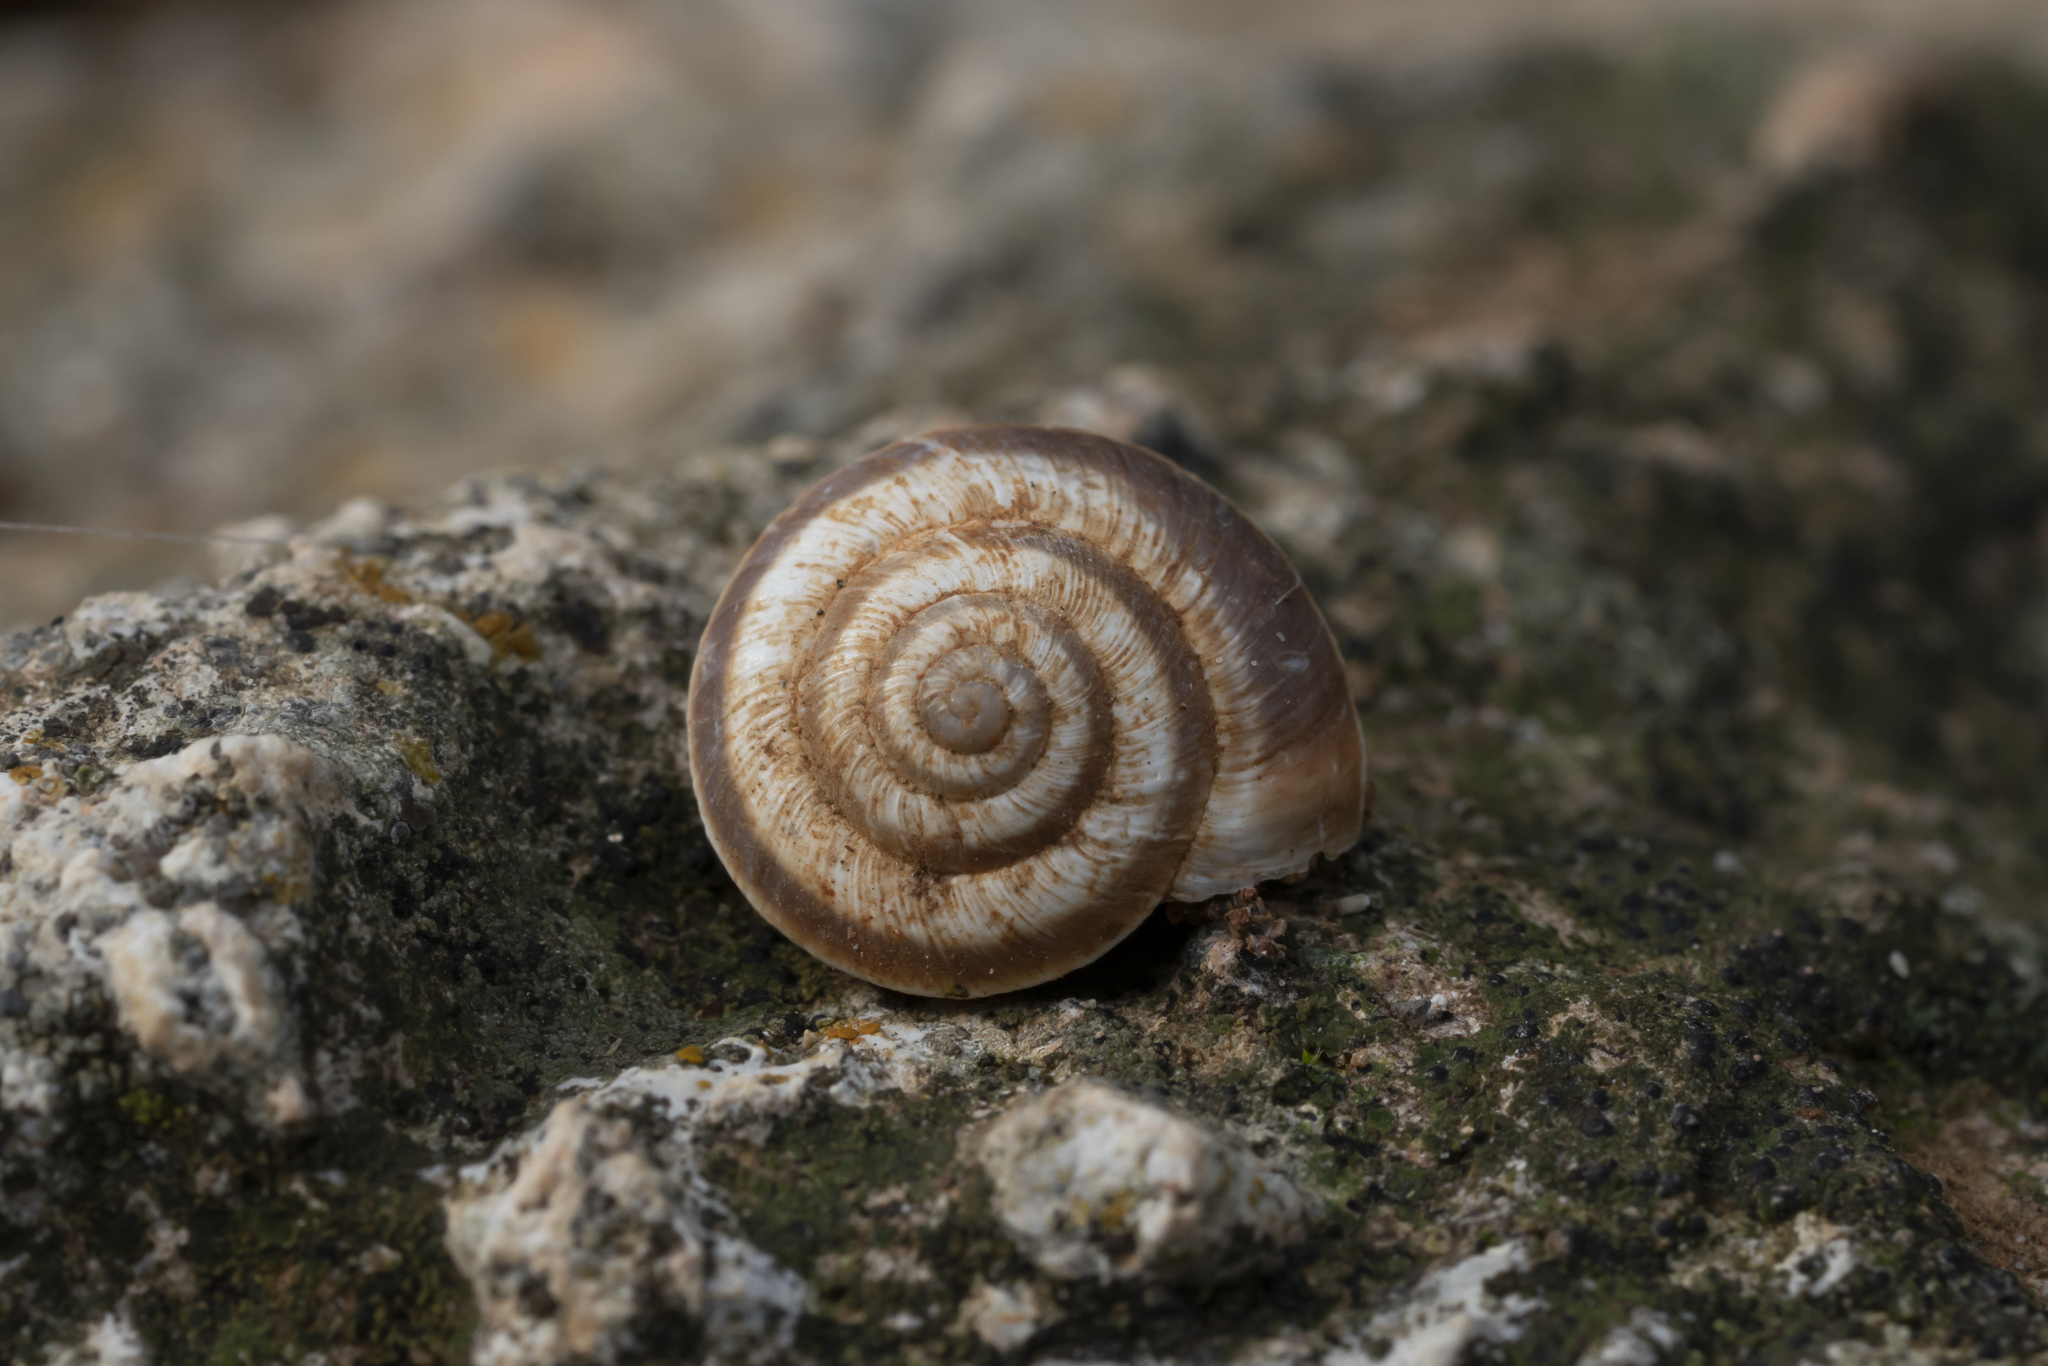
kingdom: Animalia
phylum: Mollusca
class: Gastropoda
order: Stylommatophora
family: Geomitridae
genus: Cernuella
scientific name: Cernuella virgata
